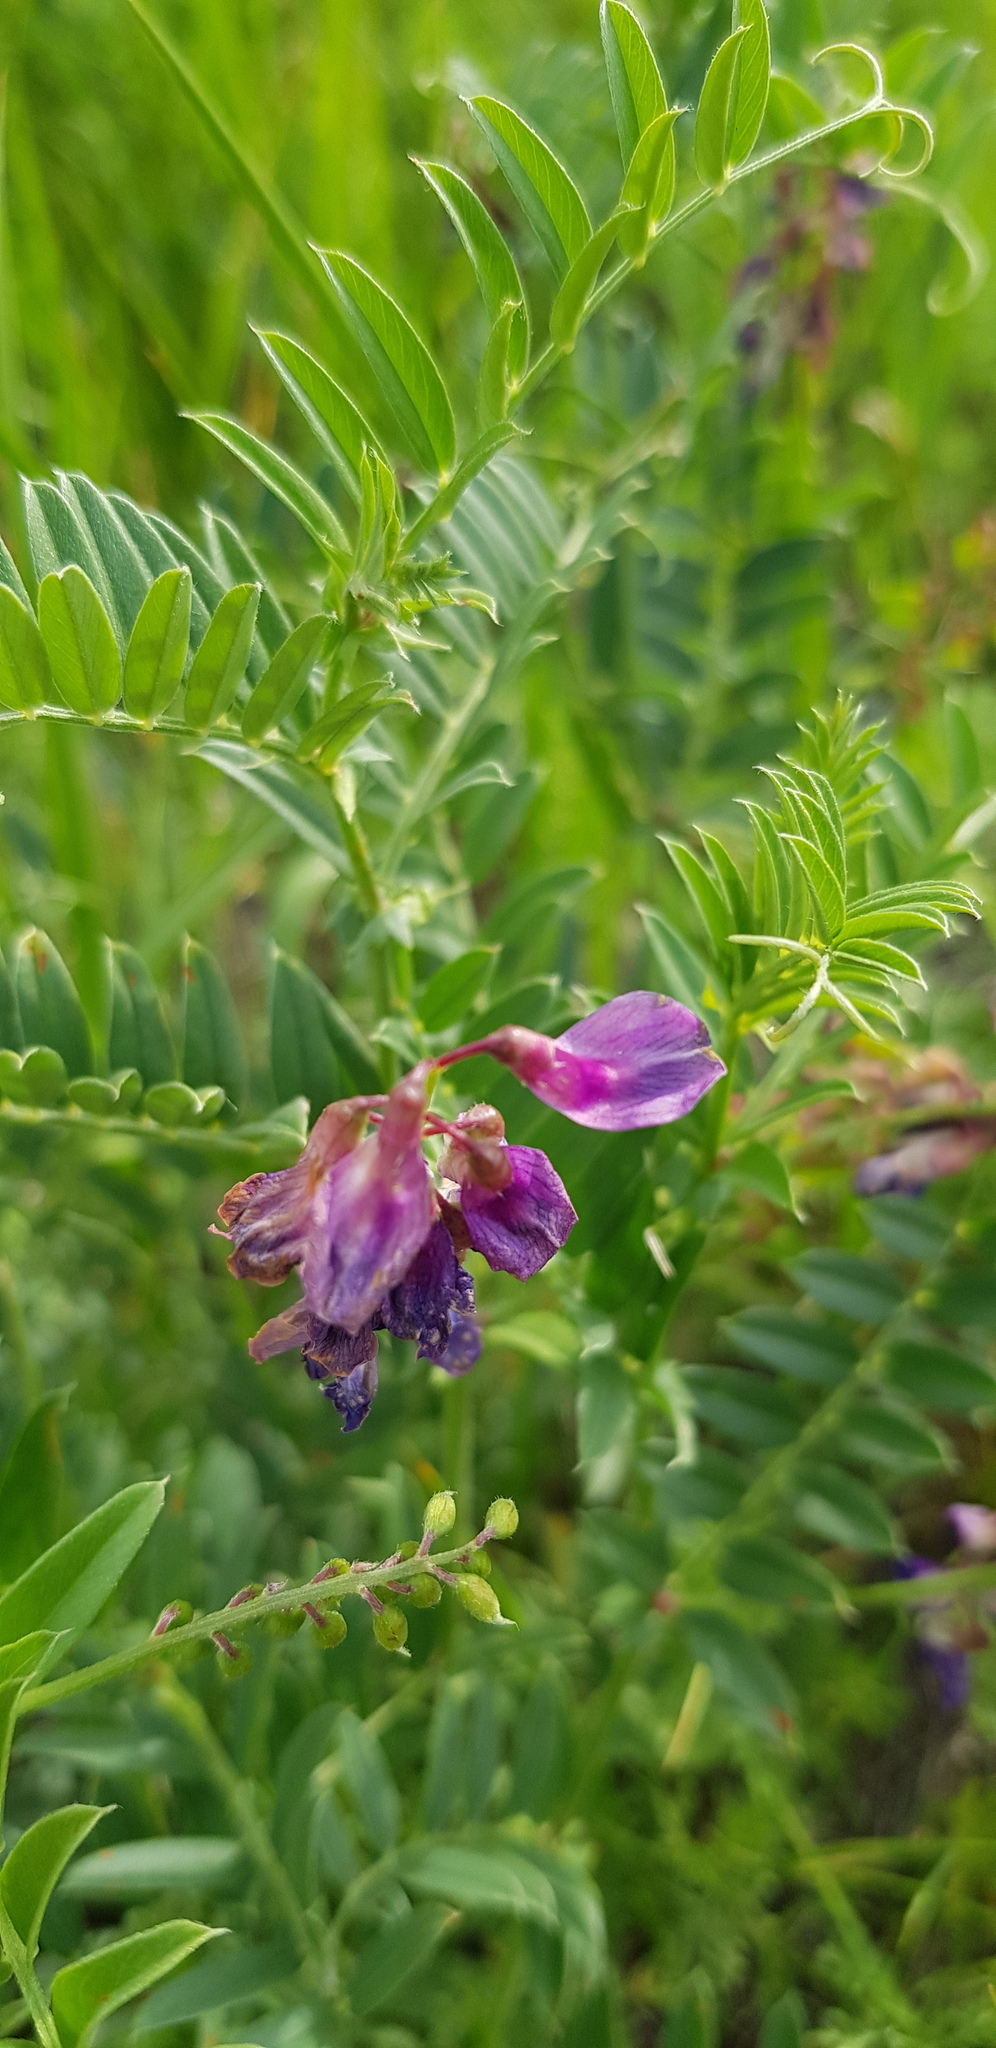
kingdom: Plantae
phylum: Tracheophyta
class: Magnoliopsida
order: Fabales
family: Fabaceae
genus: Vicia
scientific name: Vicia amoena
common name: Cheder ebs
